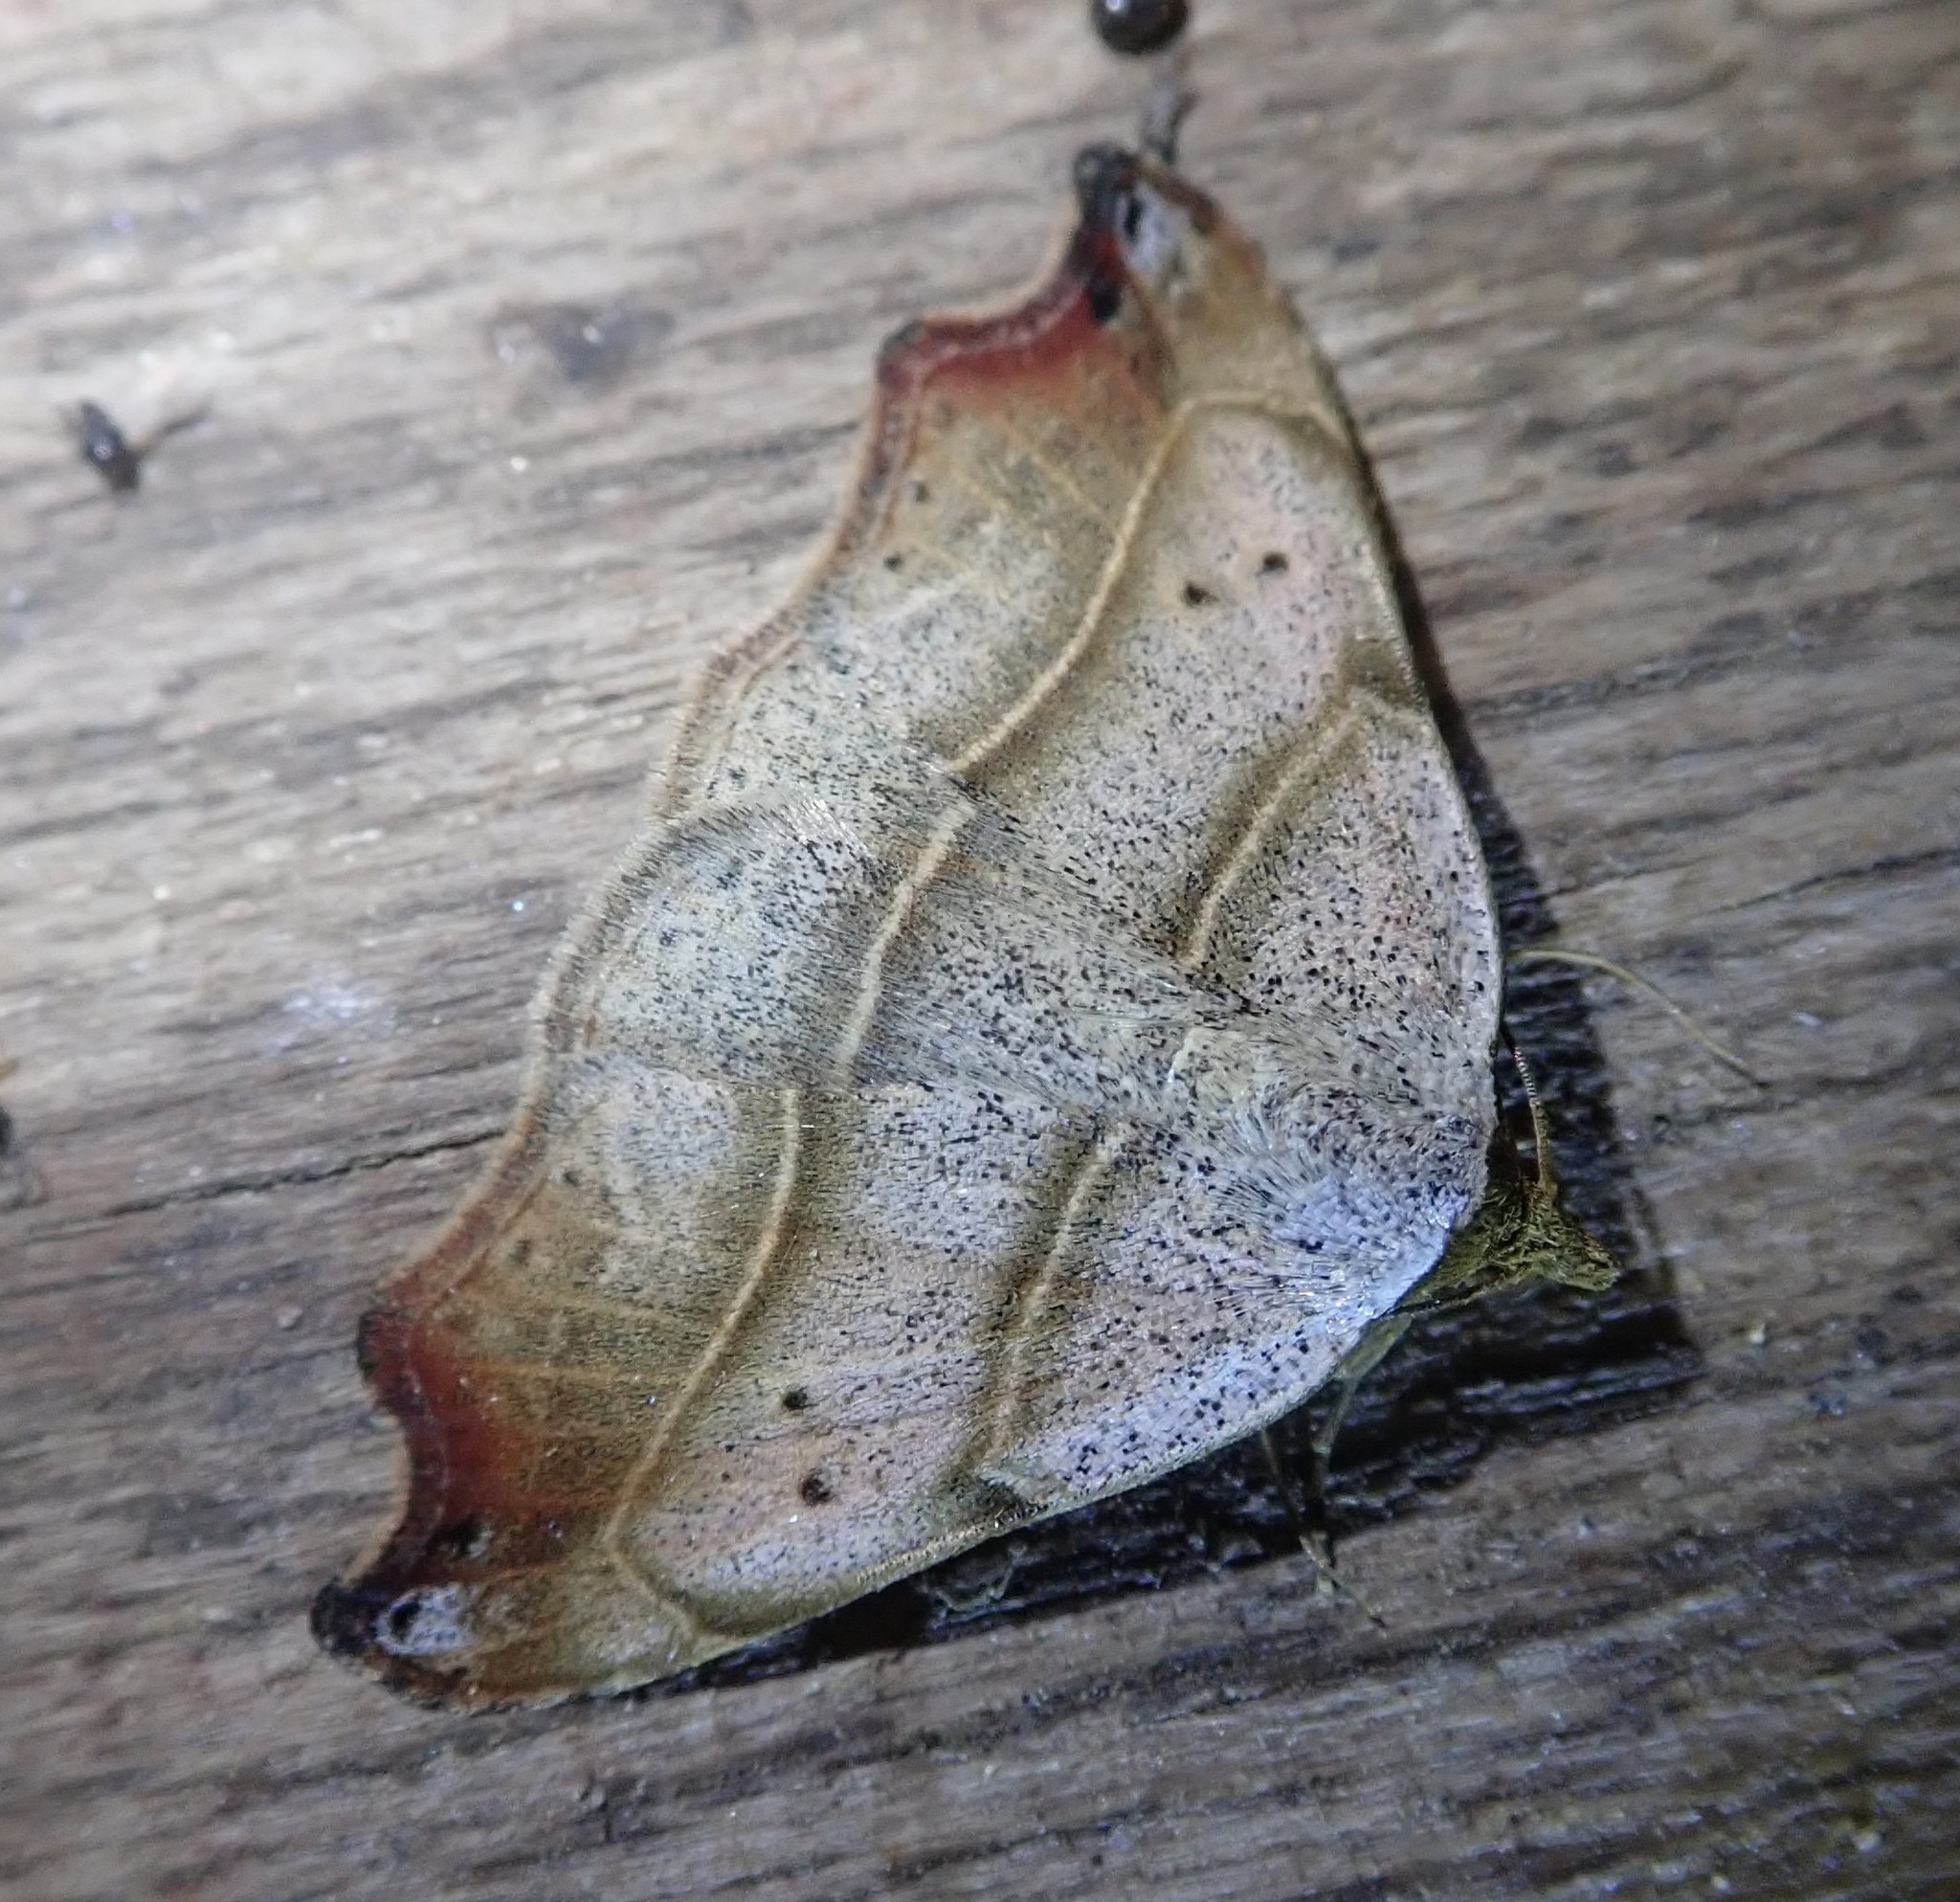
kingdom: Animalia
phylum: Arthropoda
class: Insecta
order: Lepidoptera
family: Erebidae
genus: Laspeyria
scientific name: Laspeyria flexula
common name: Beautiful hook-tip
